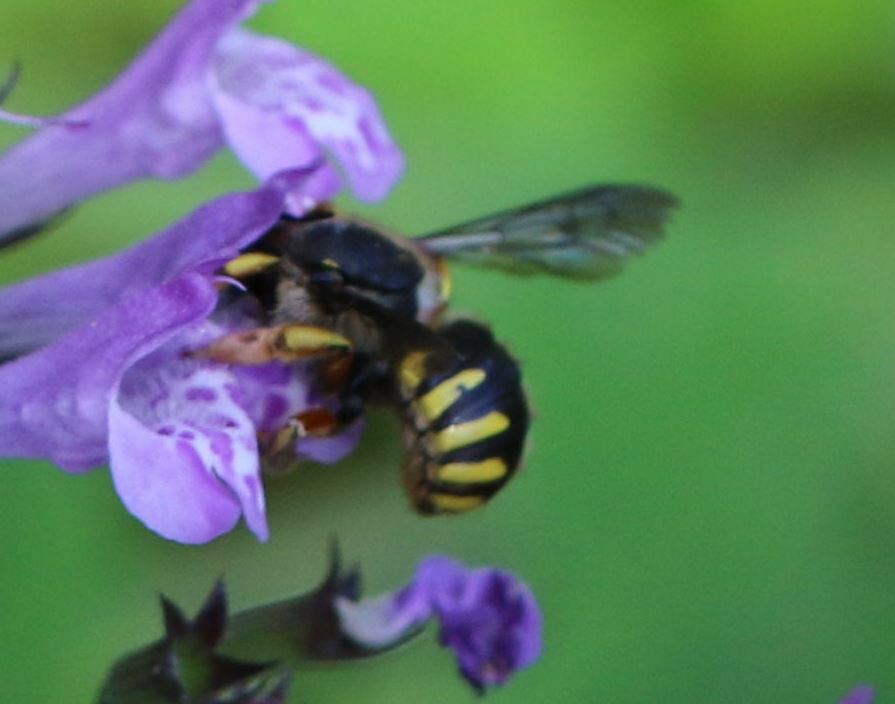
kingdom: Animalia
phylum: Arthropoda
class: Insecta
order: Hymenoptera
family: Megachilidae
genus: Anthidium
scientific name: Anthidium manicatum
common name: Wool carder bee
